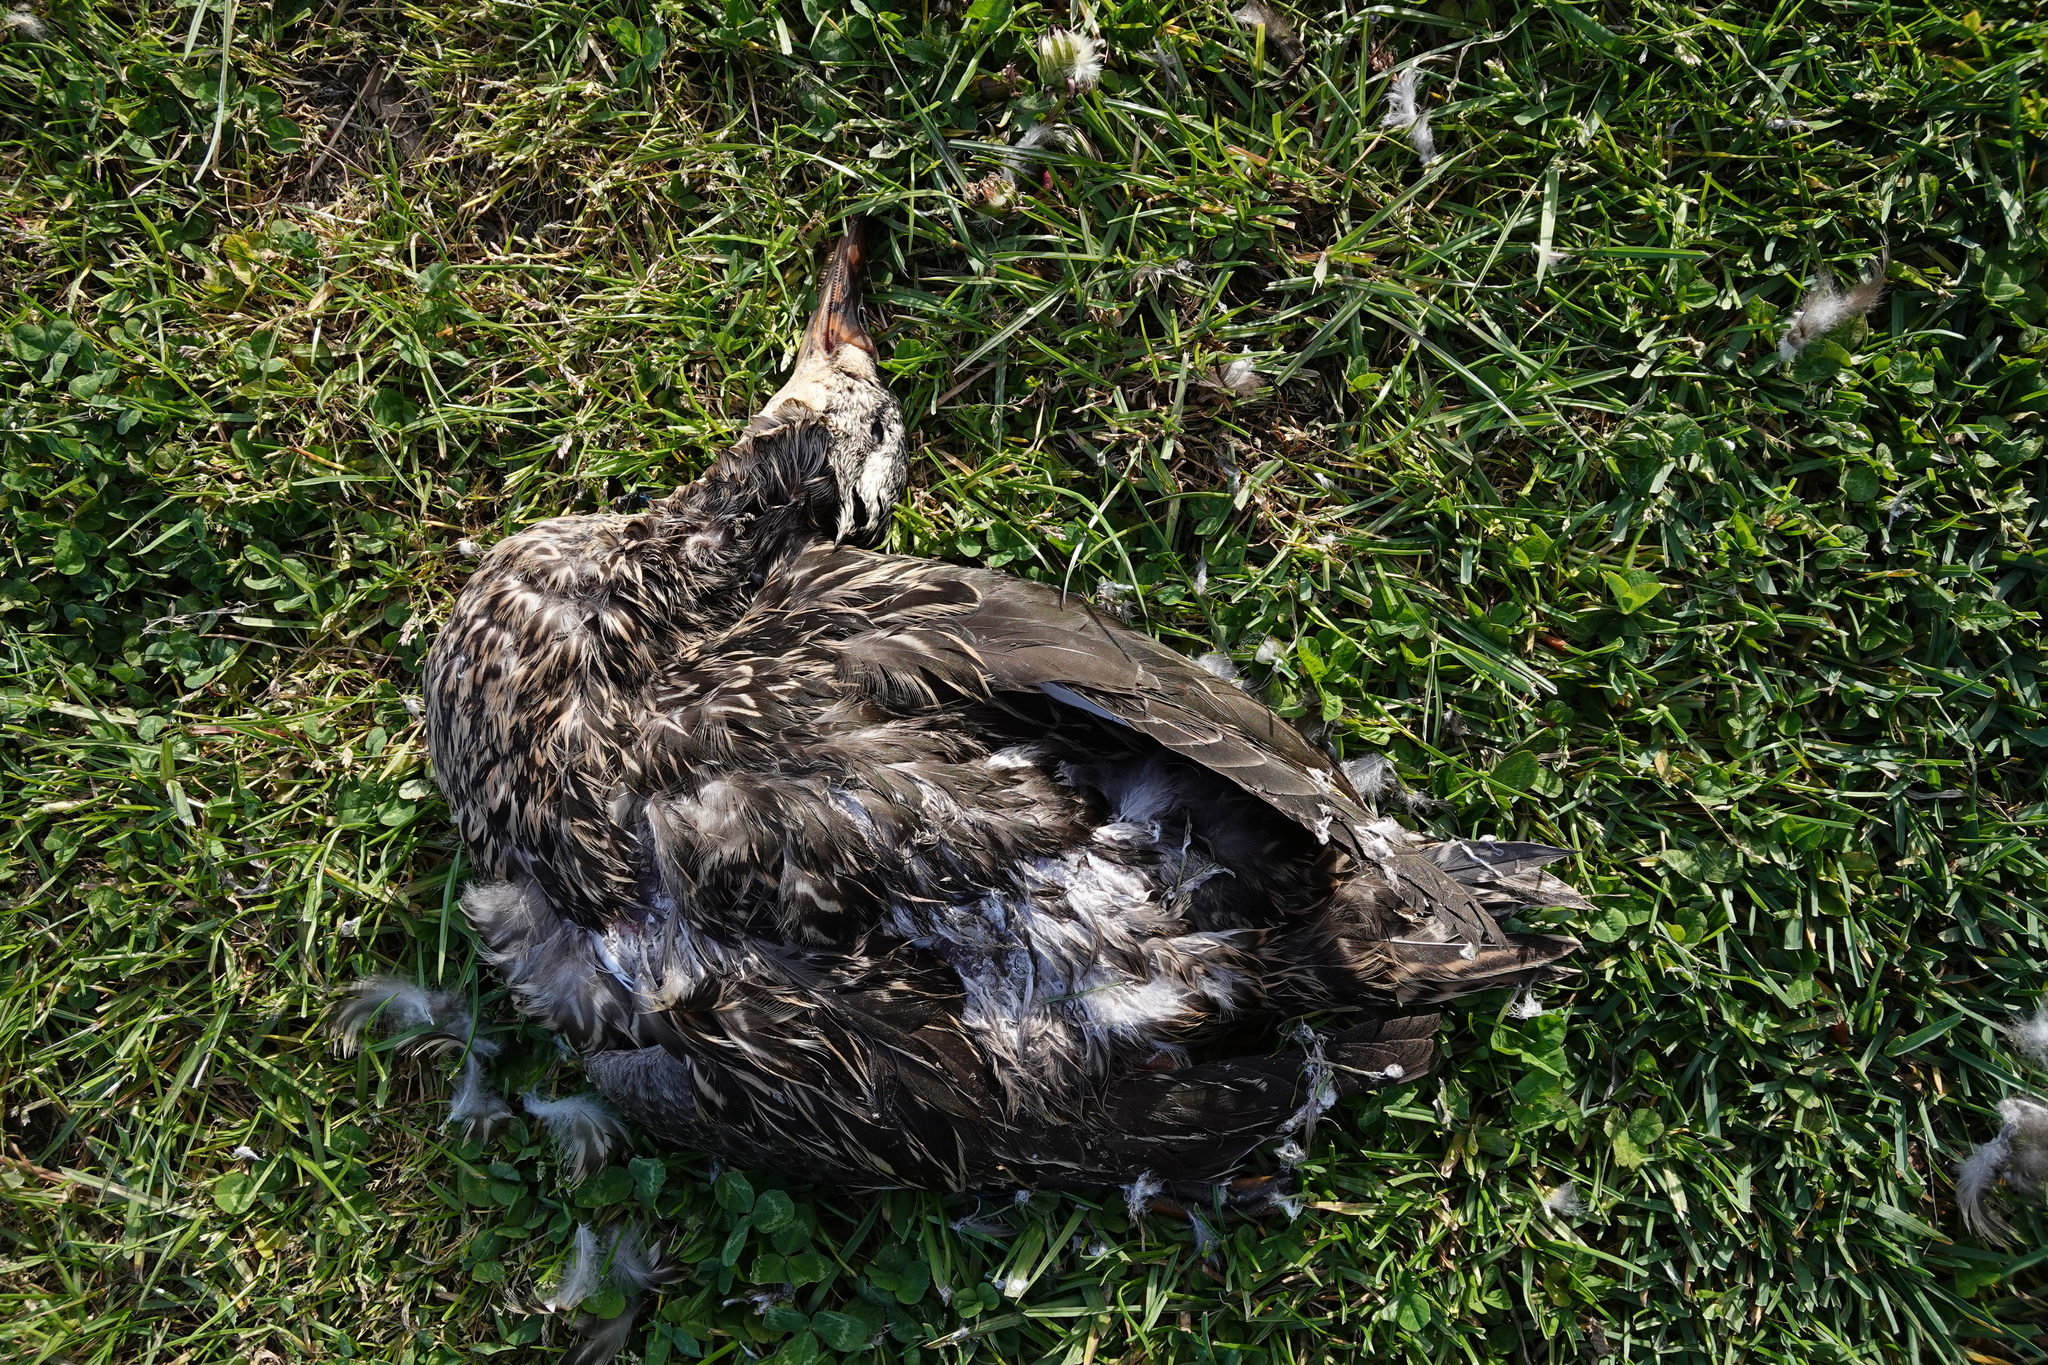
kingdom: Animalia
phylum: Chordata
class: Aves
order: Anseriformes
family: Anatidae
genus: Anas
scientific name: Anas platyrhynchos
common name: Mallard
